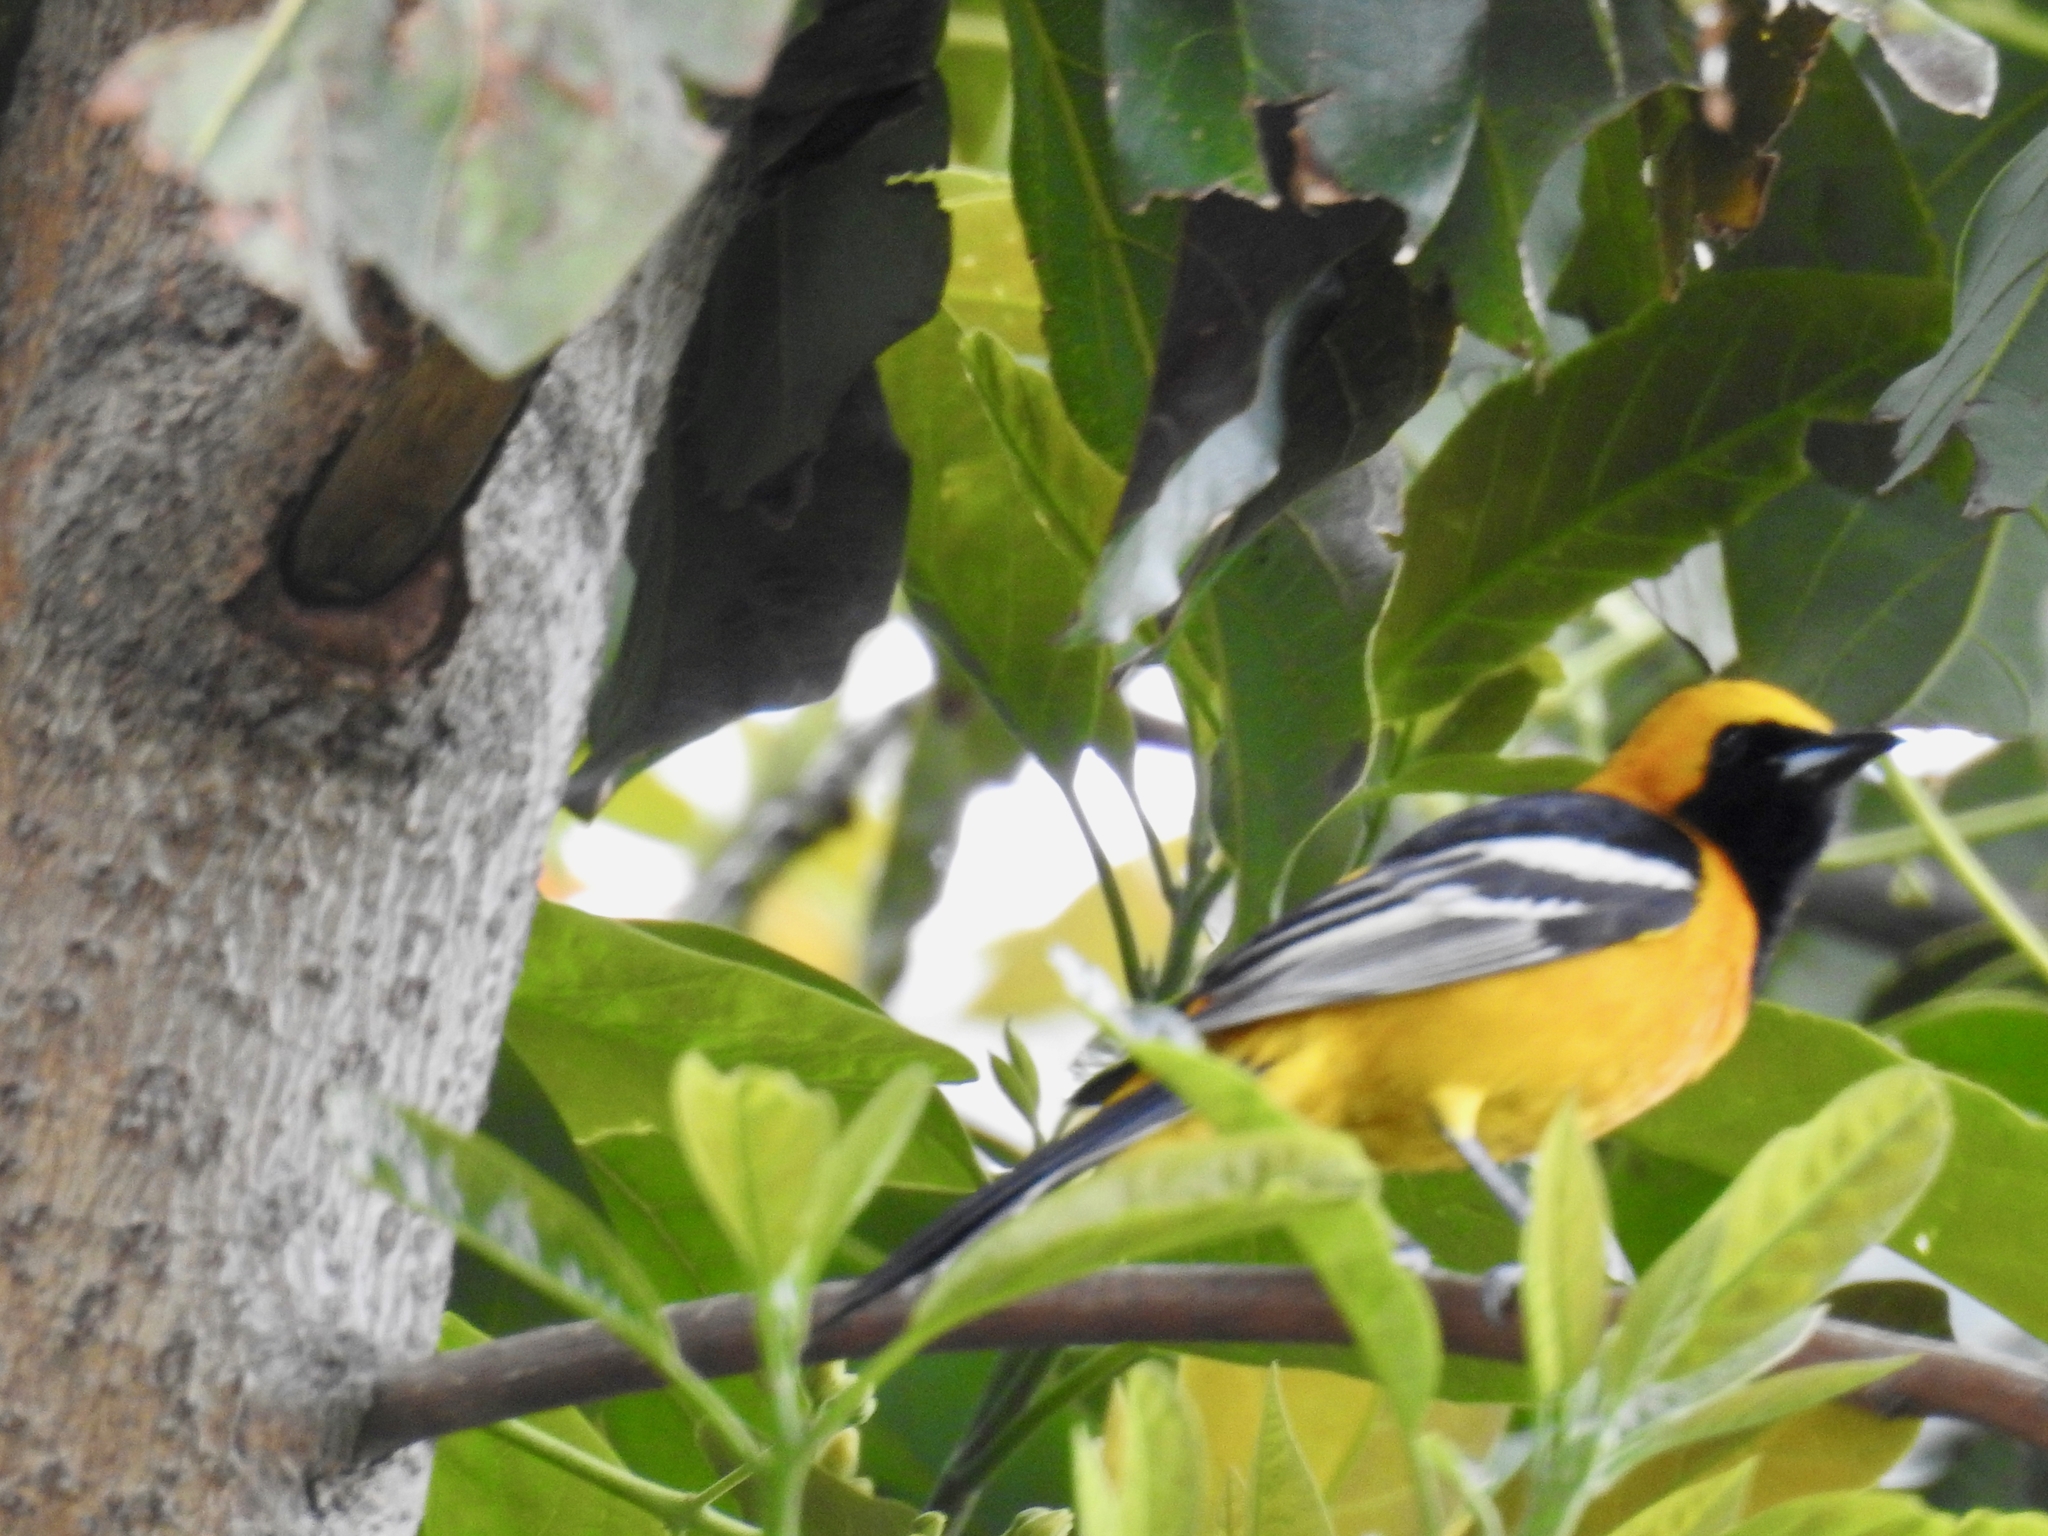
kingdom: Animalia
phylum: Chordata
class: Aves
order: Passeriformes
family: Icteridae
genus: Icterus
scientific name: Icterus cucullatus
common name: Hooded oriole
